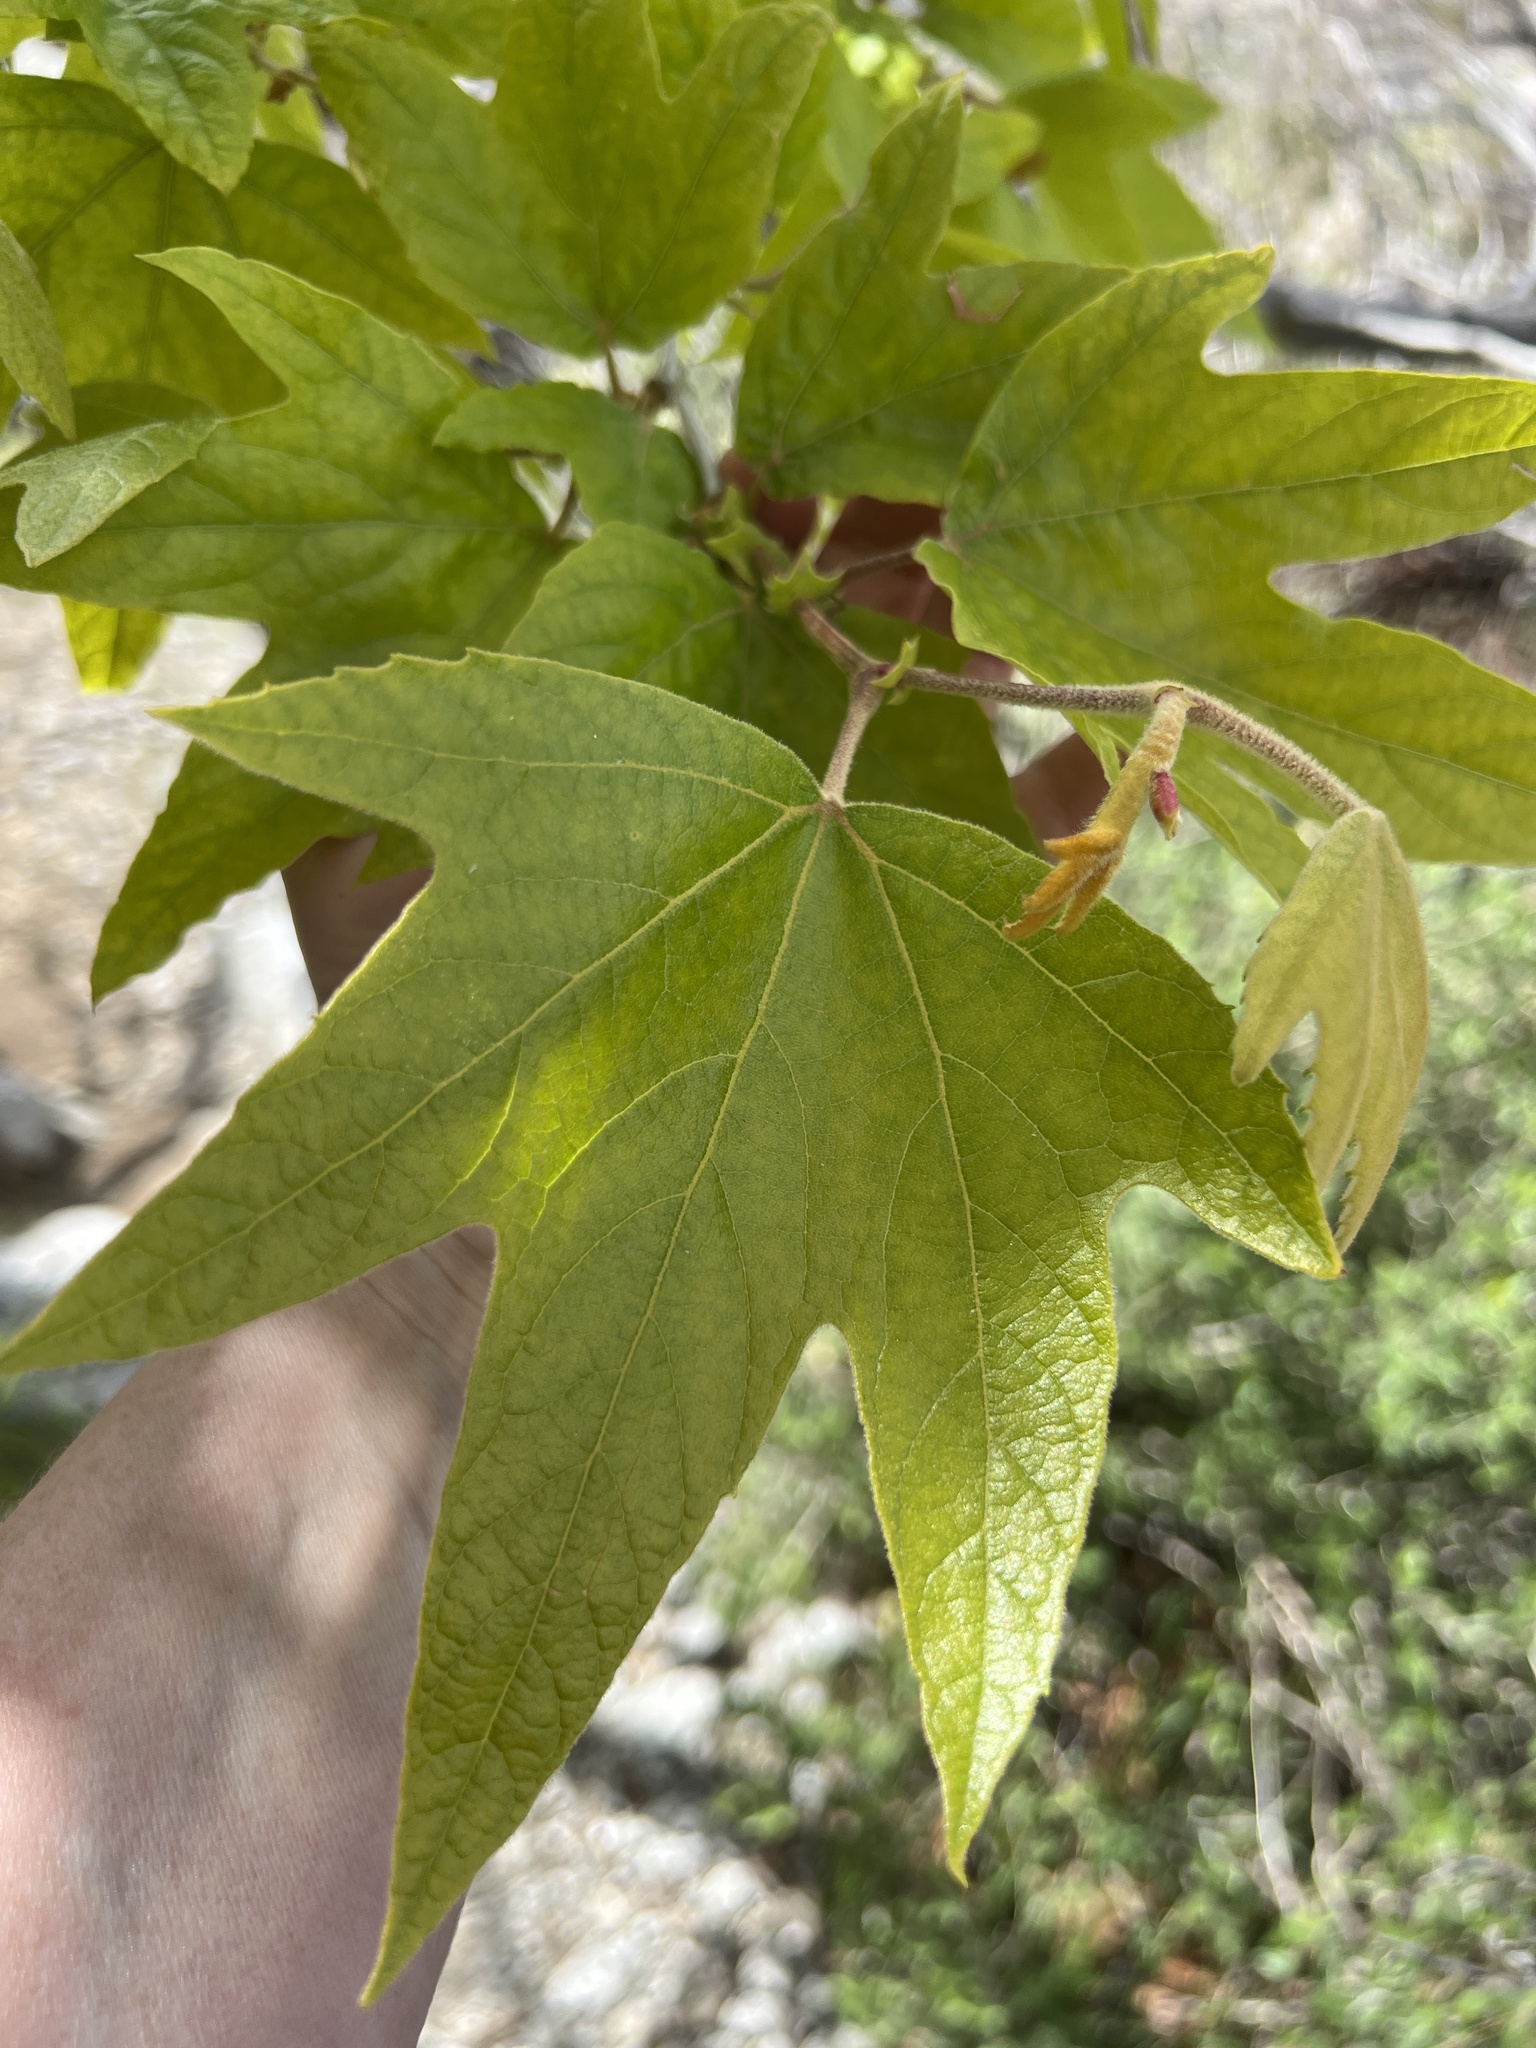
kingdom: Plantae
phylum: Tracheophyta
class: Magnoliopsida
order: Proteales
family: Platanaceae
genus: Platanus
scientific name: Platanus racemosa
